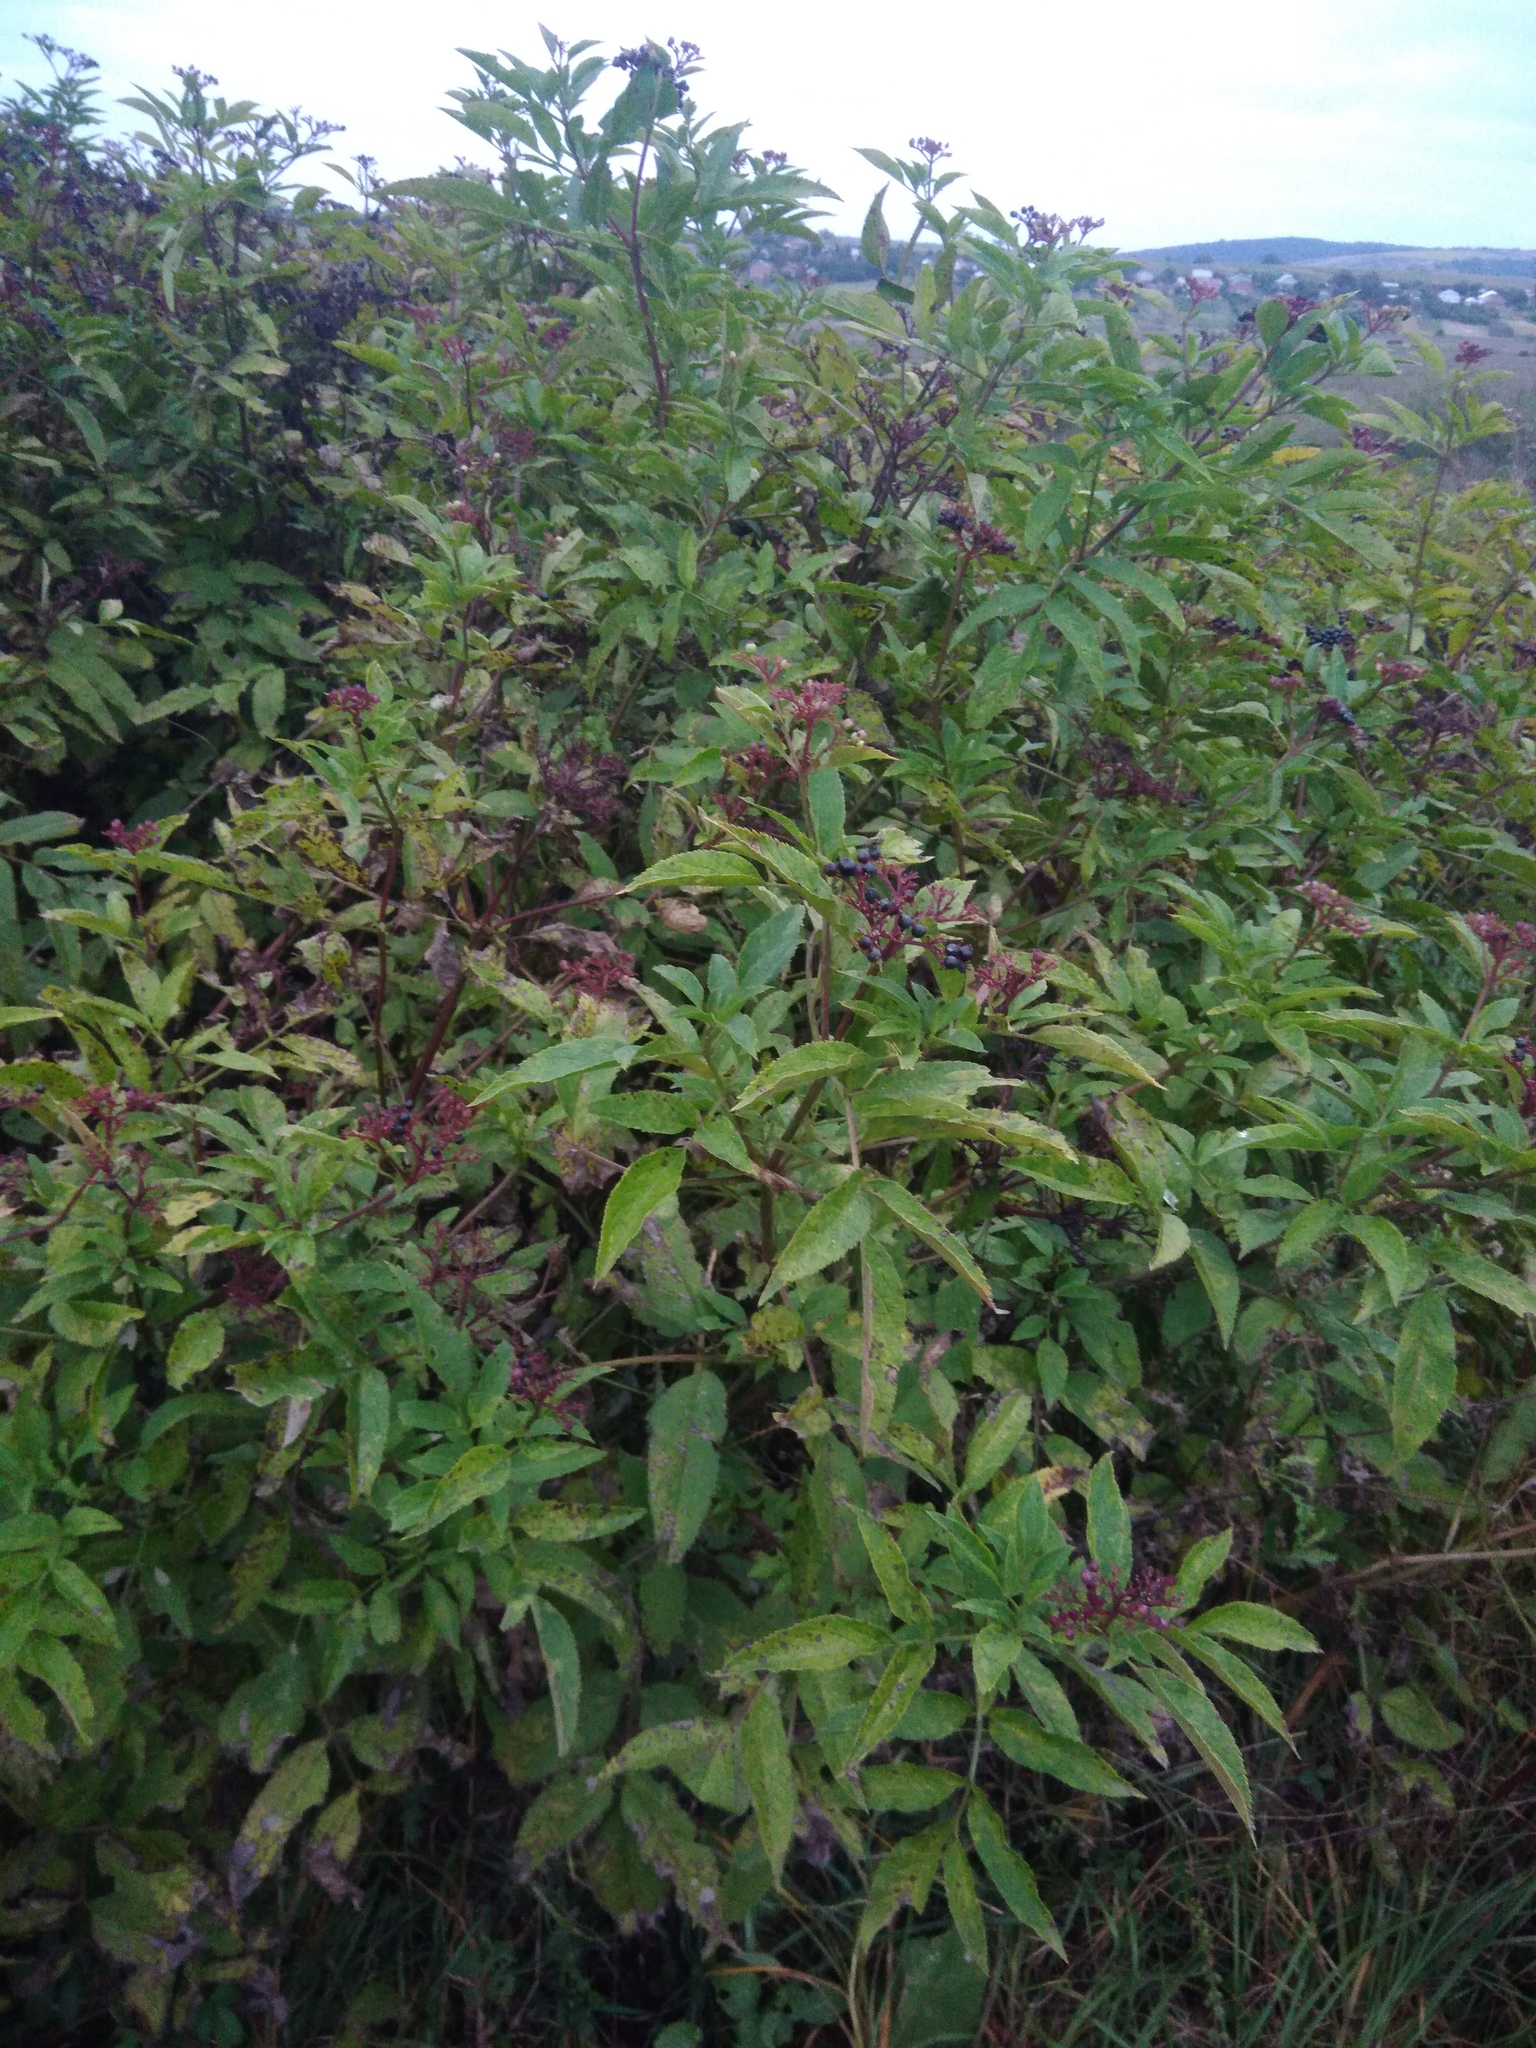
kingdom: Plantae
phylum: Tracheophyta
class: Magnoliopsida
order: Dipsacales
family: Viburnaceae
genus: Sambucus
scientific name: Sambucus ebulus
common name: Dwarf elder
